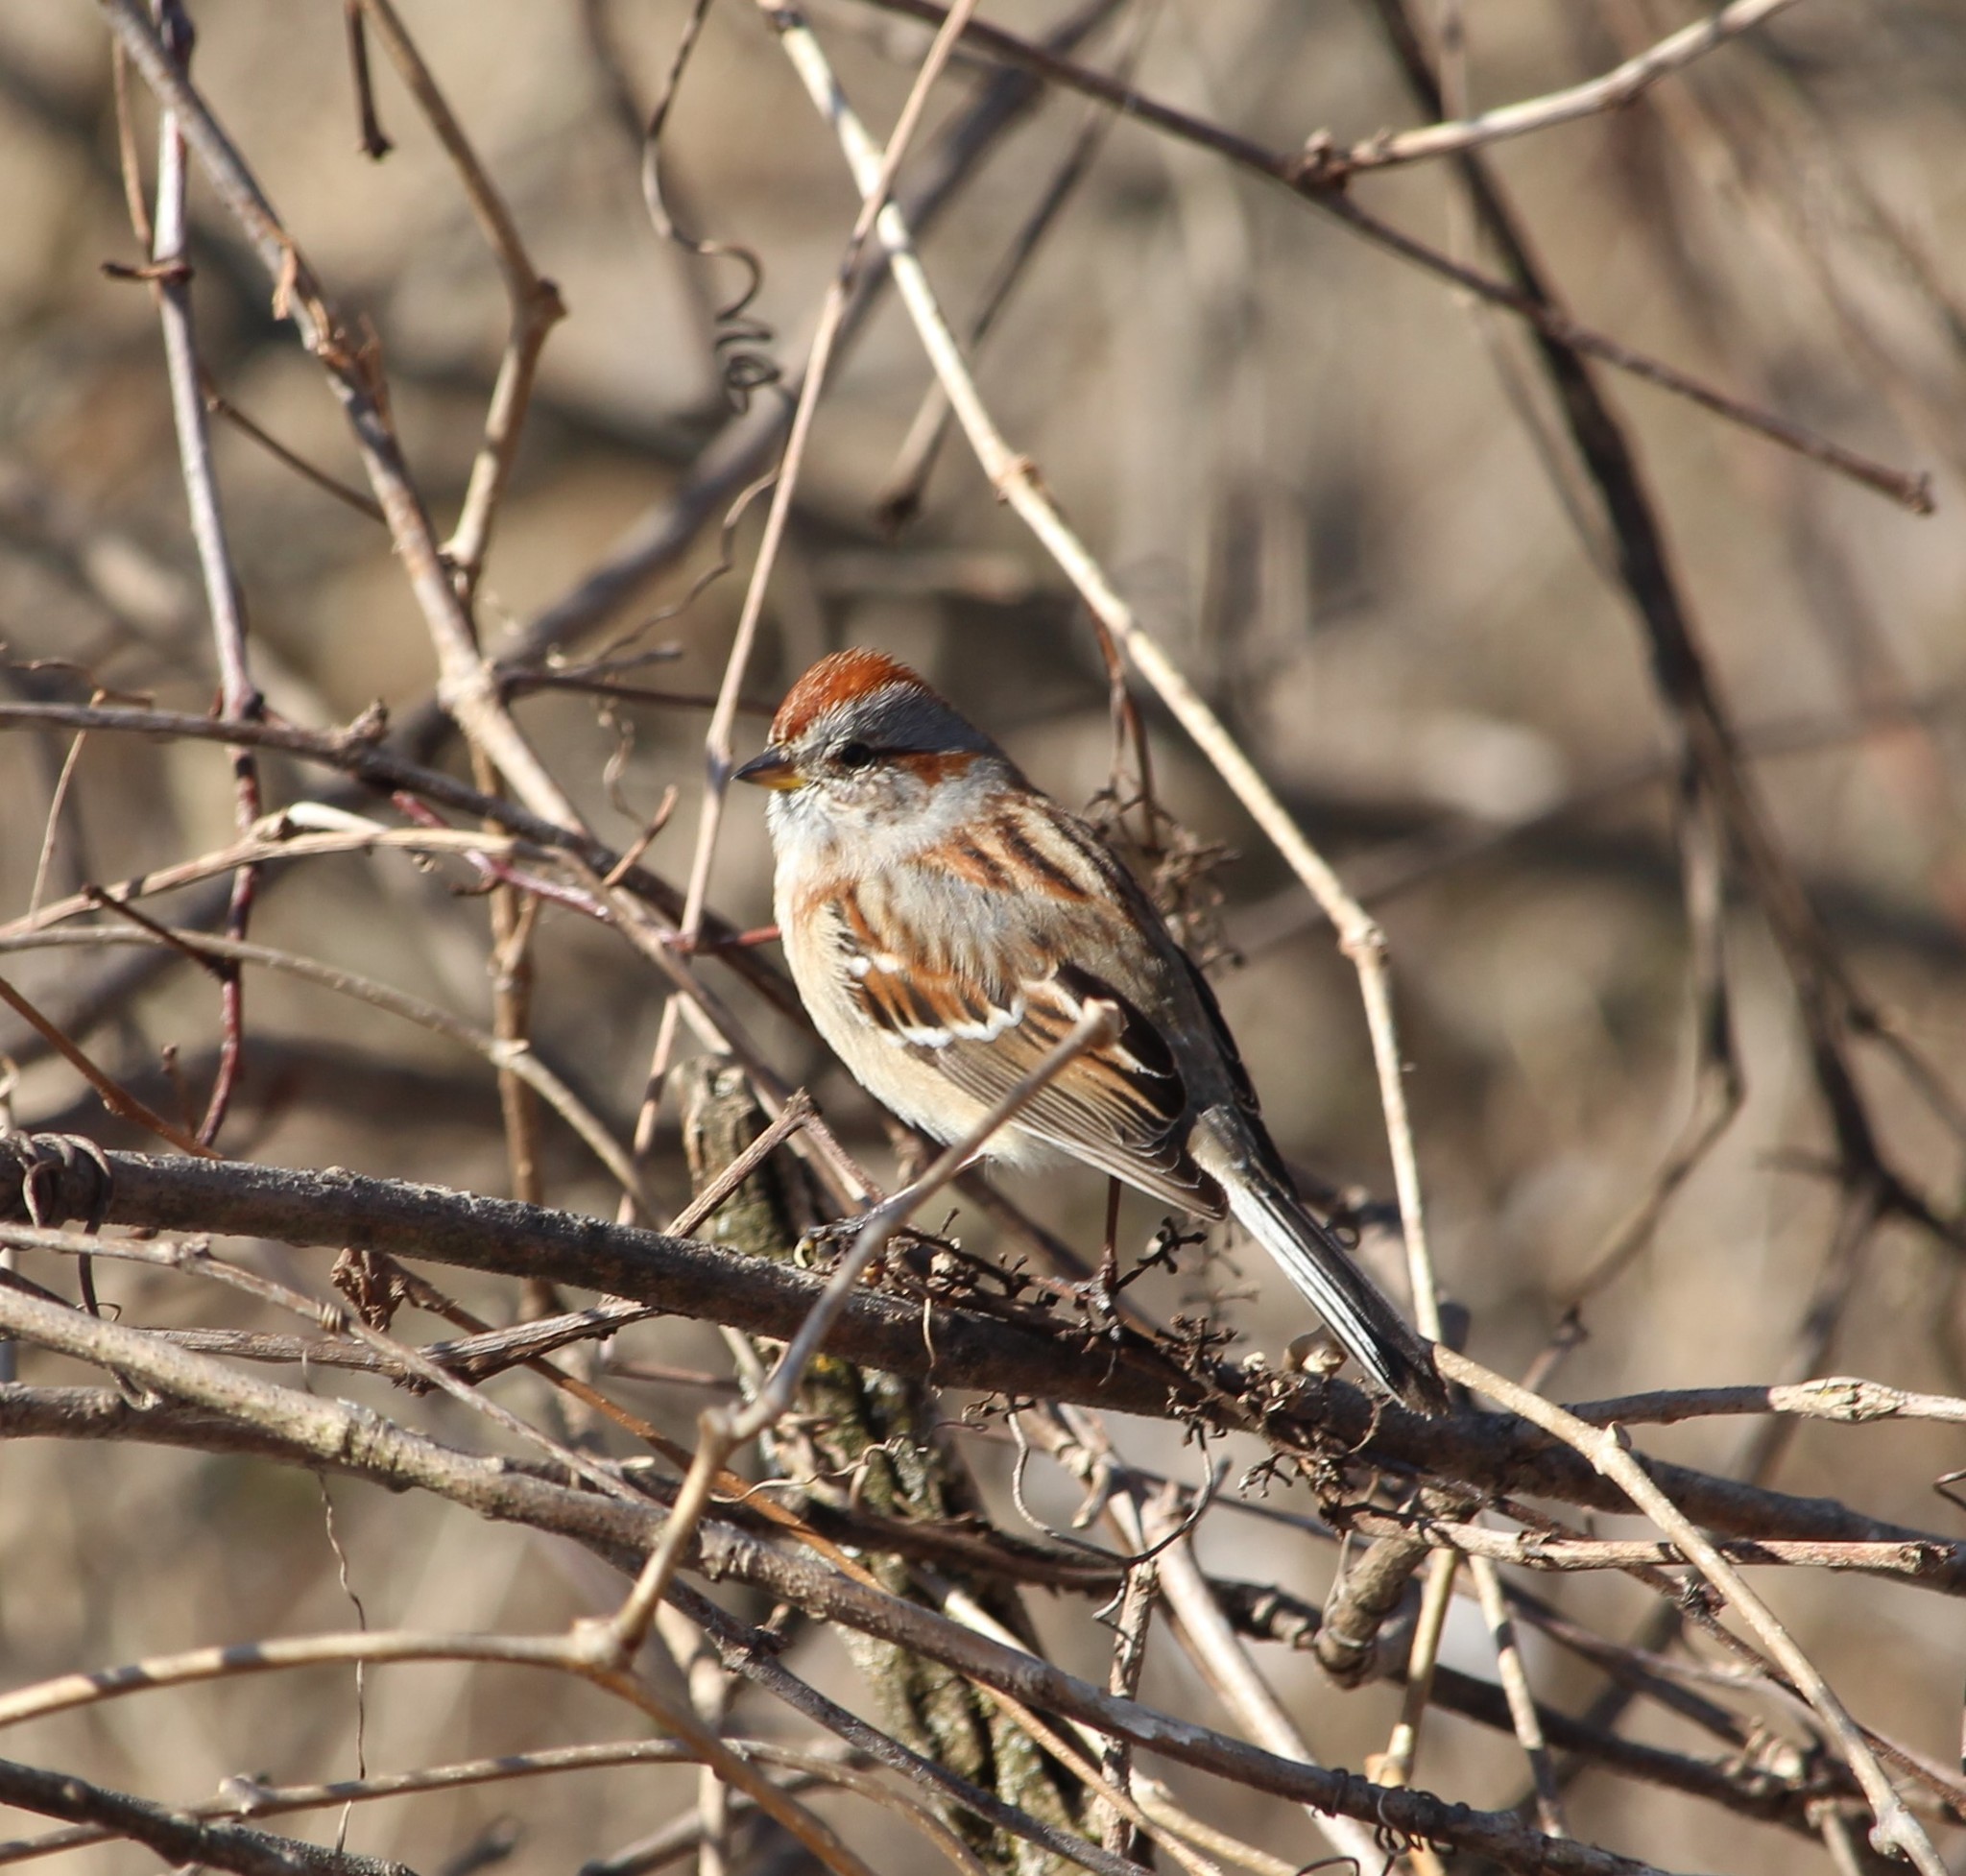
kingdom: Animalia
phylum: Chordata
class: Aves
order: Passeriformes
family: Passerellidae
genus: Spizelloides
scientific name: Spizelloides arborea
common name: American tree sparrow
